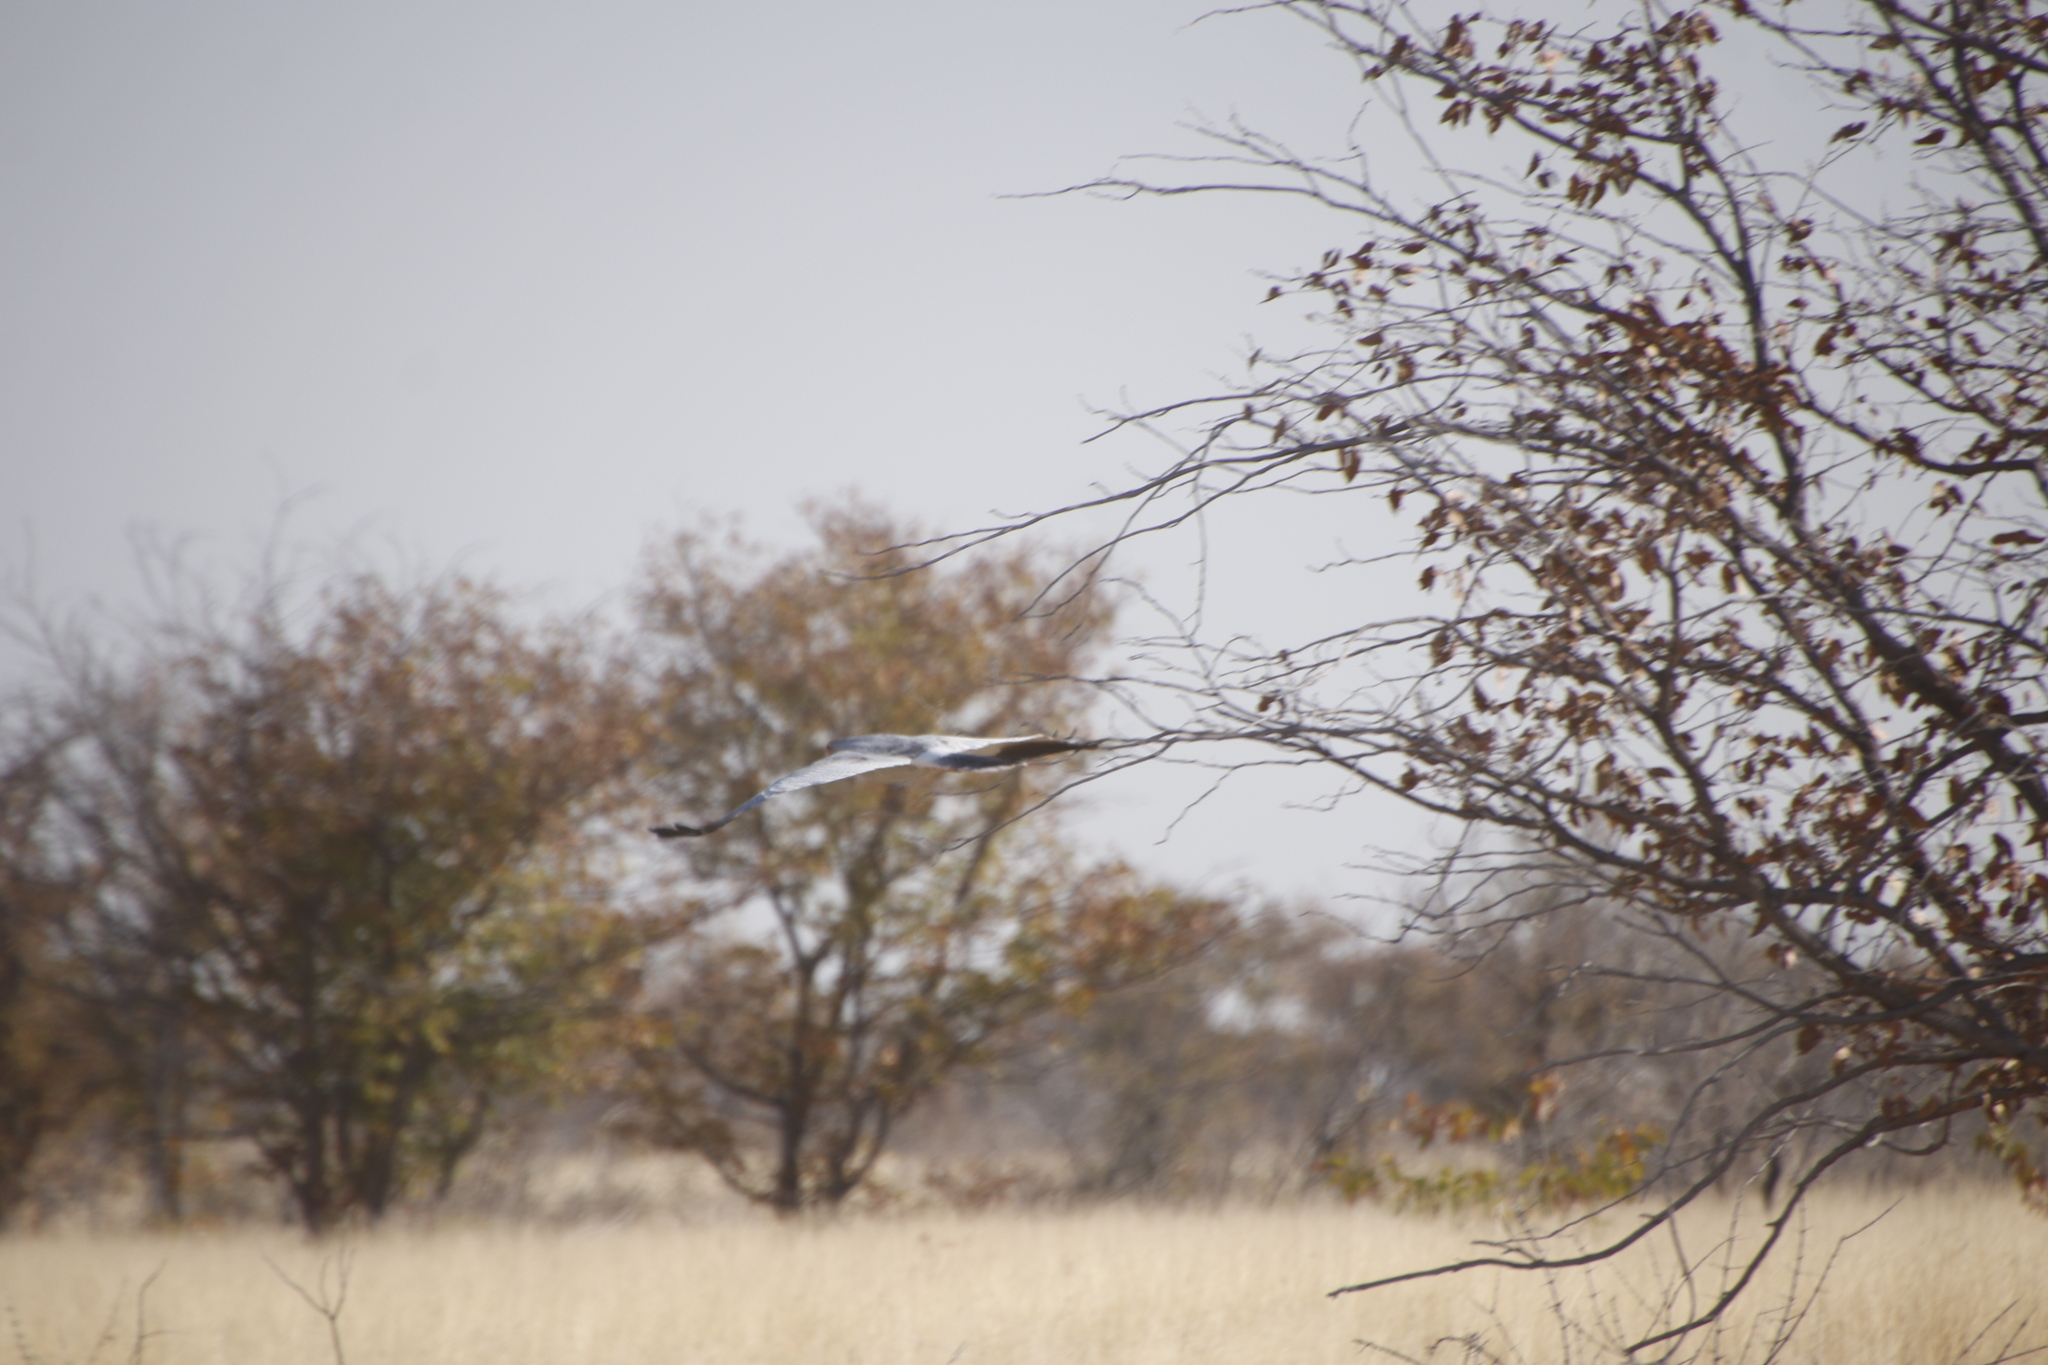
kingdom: Animalia
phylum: Chordata
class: Aves
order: Accipitriformes
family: Accipitridae
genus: Melierax
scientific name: Melierax canorus
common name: Pale chanting-goshawk
